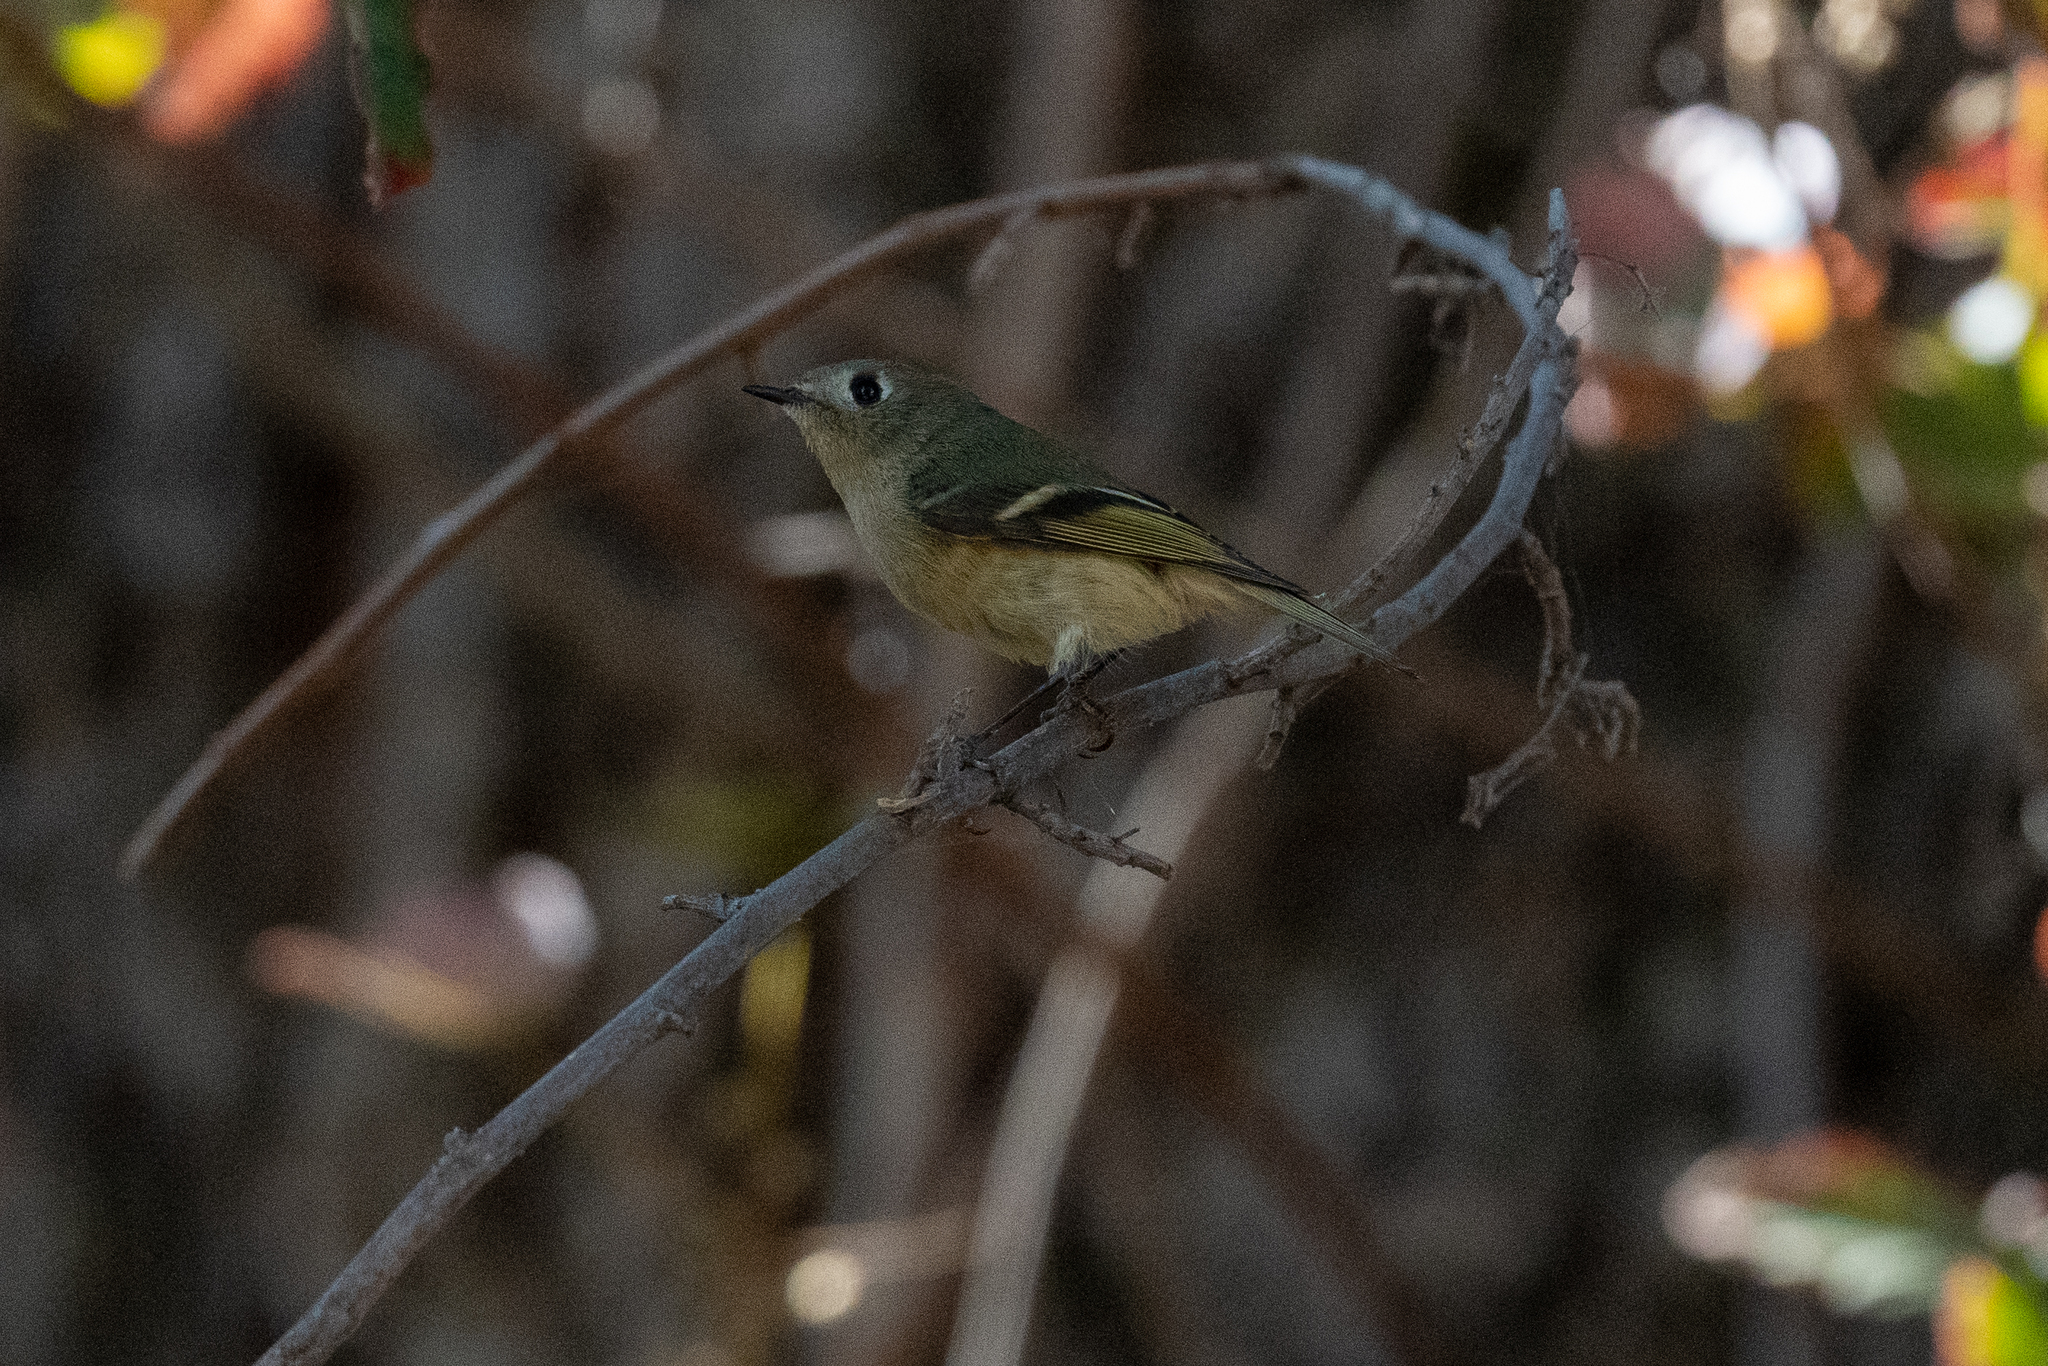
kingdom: Animalia
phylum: Chordata
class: Aves
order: Passeriformes
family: Regulidae
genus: Regulus
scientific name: Regulus calendula
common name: Ruby-crowned kinglet
